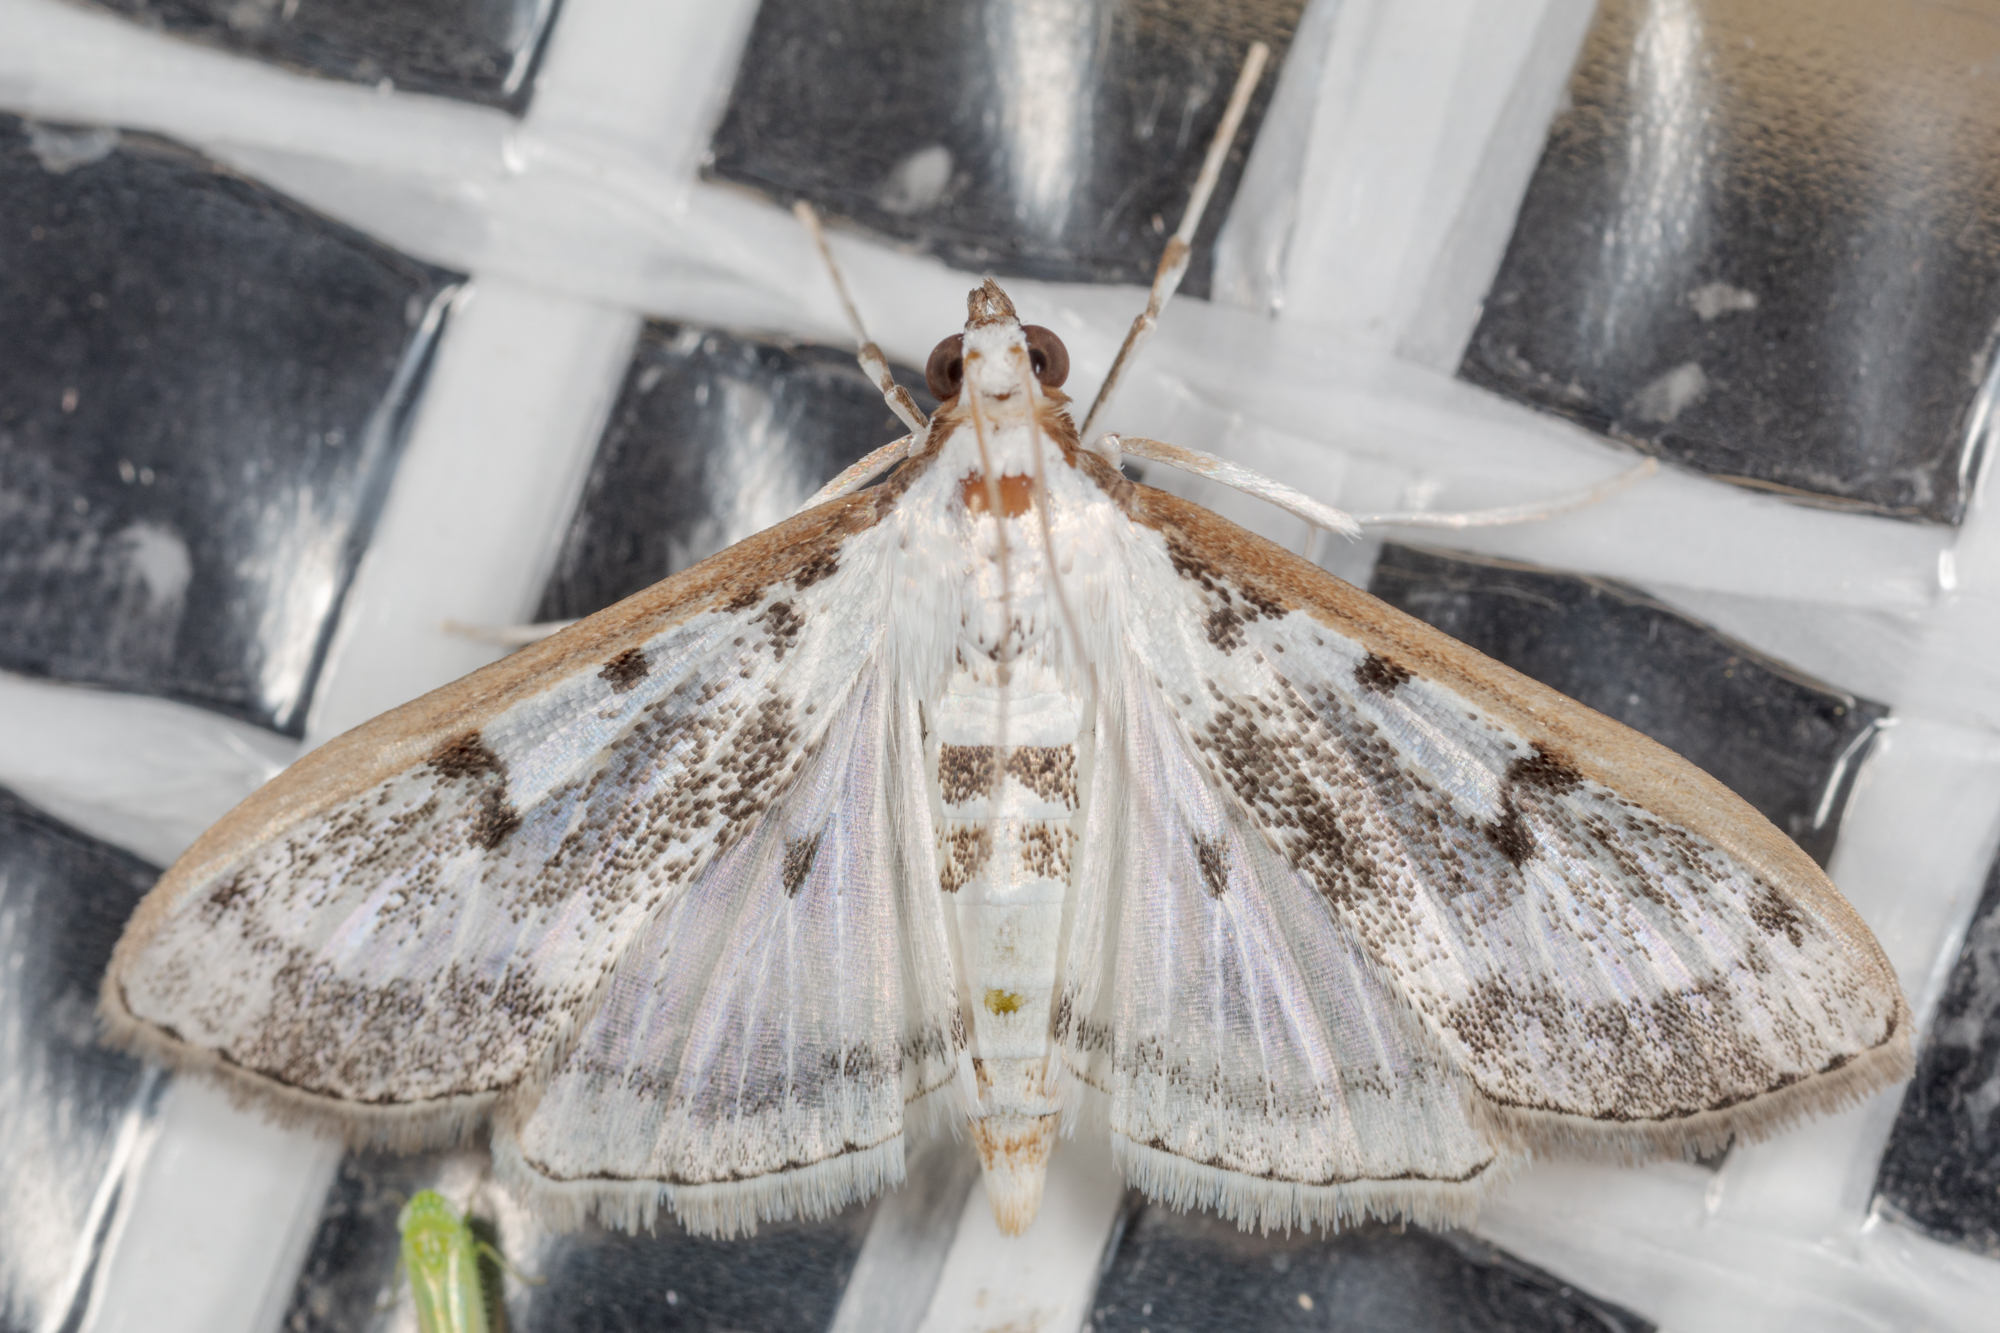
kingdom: Animalia
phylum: Arthropoda
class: Insecta
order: Lepidoptera
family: Crambidae
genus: Palpita
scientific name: Palpita gracilalis
